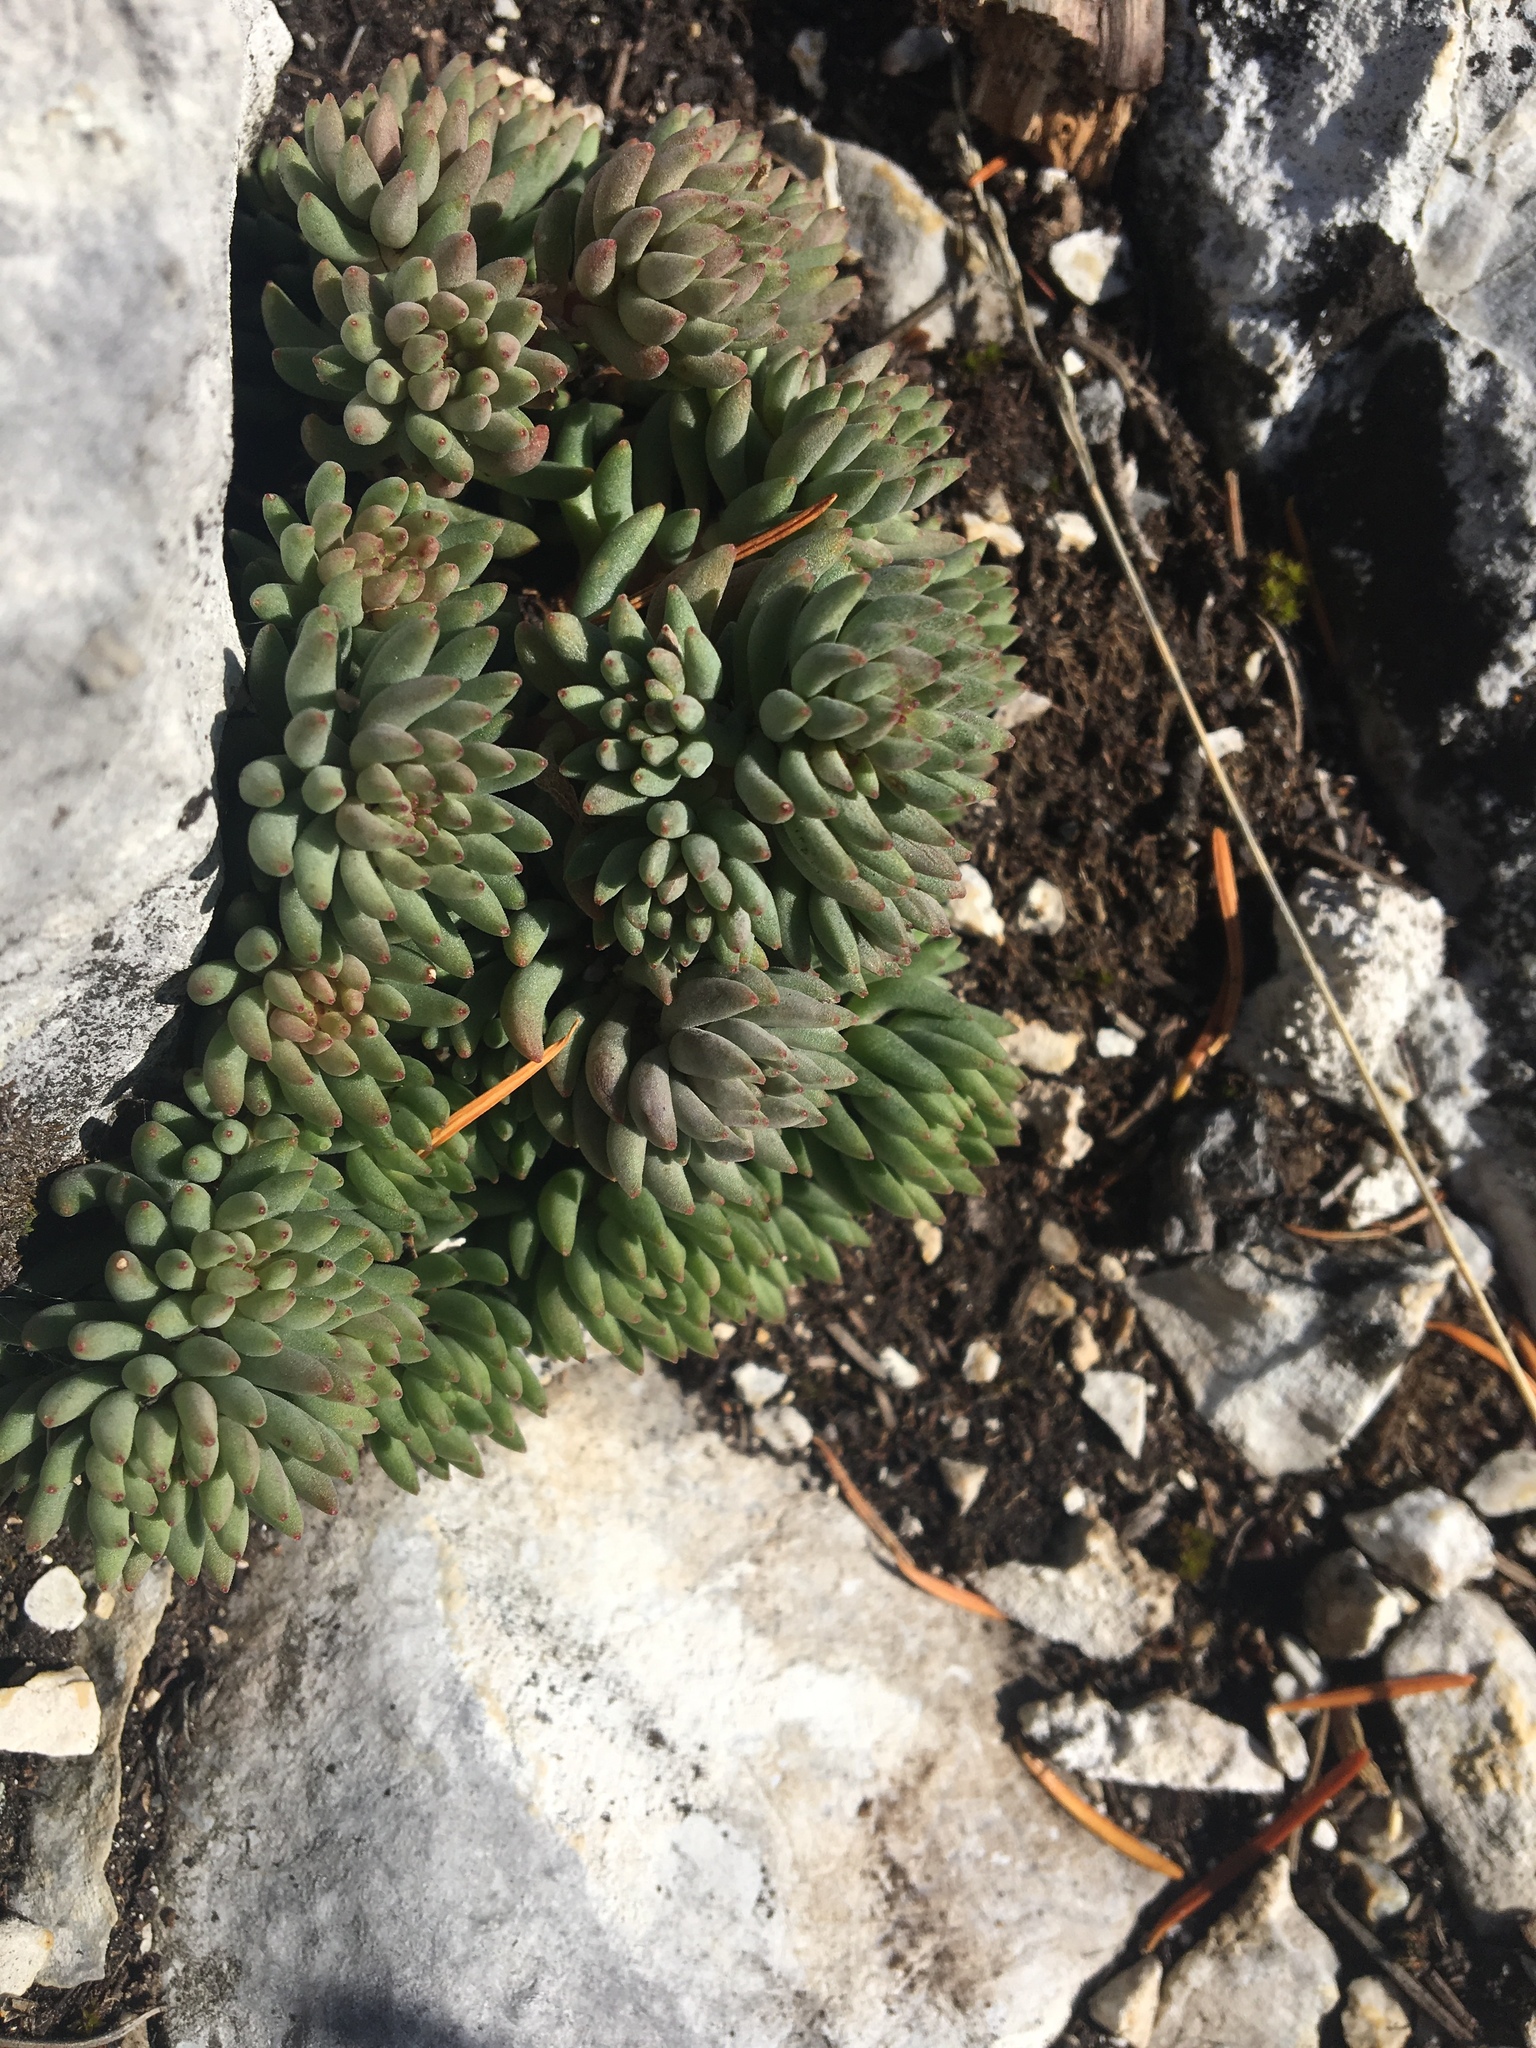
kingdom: Plantae
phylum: Tracheophyta
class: Magnoliopsida
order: Saxifragales
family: Crassulaceae
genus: Sedum
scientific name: Sedum lanceolatum
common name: Common stonecrop
